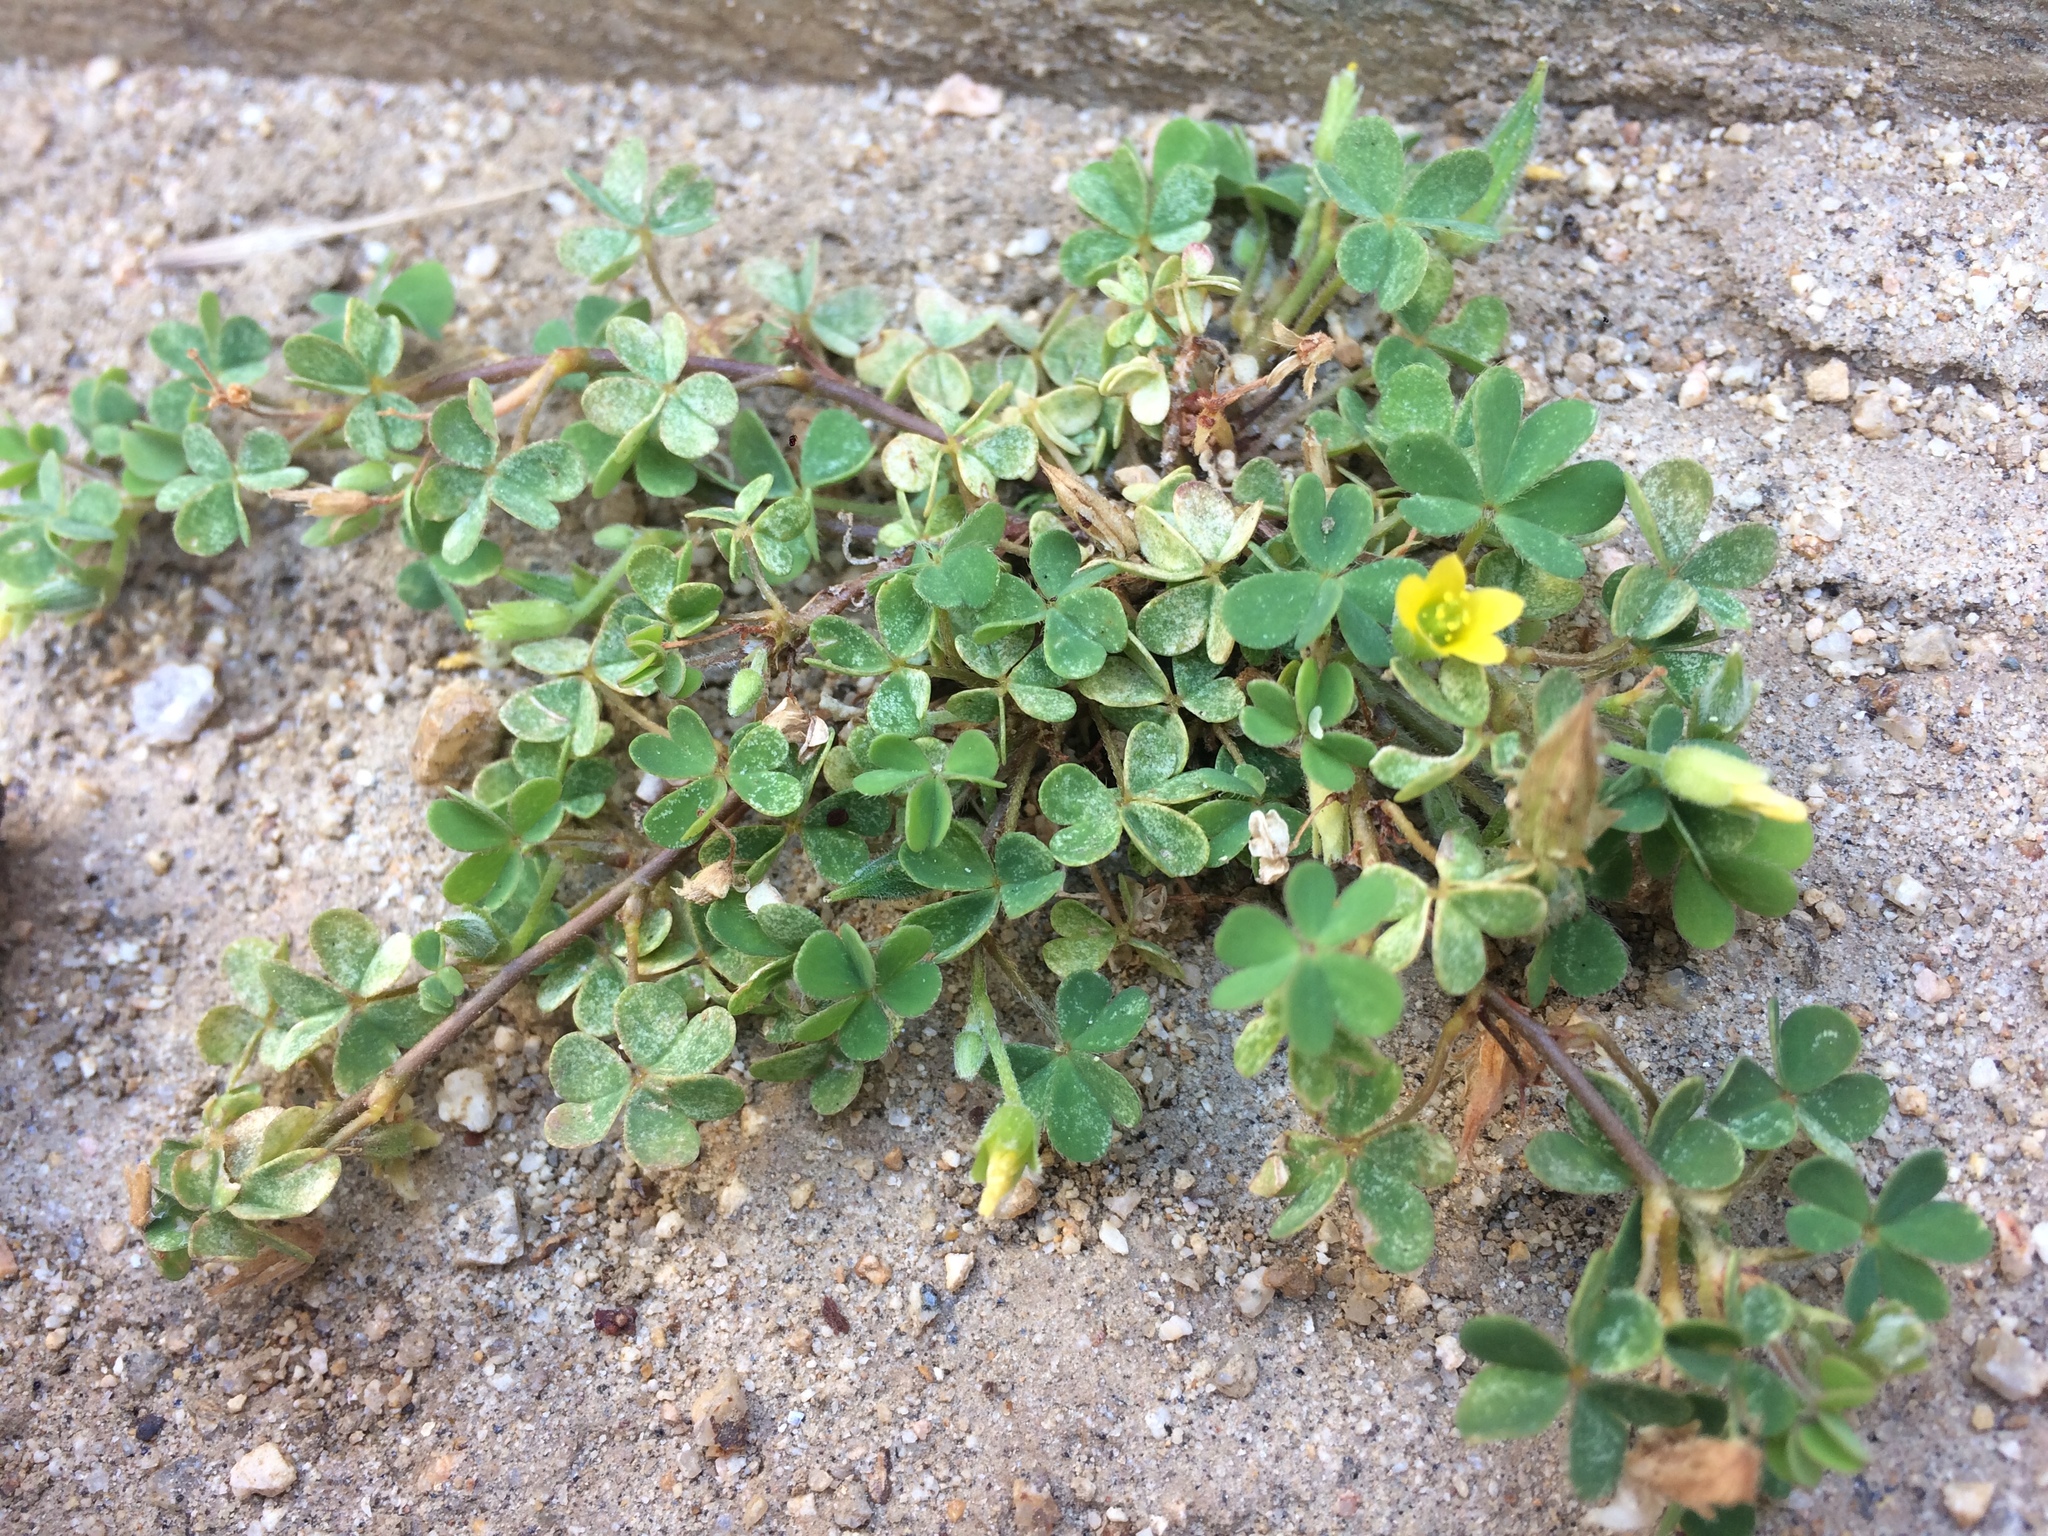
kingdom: Plantae
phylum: Tracheophyta
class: Magnoliopsida
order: Oxalidales
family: Oxalidaceae
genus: Oxalis
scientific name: Oxalis corniculata
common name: Procumbent yellow-sorrel
